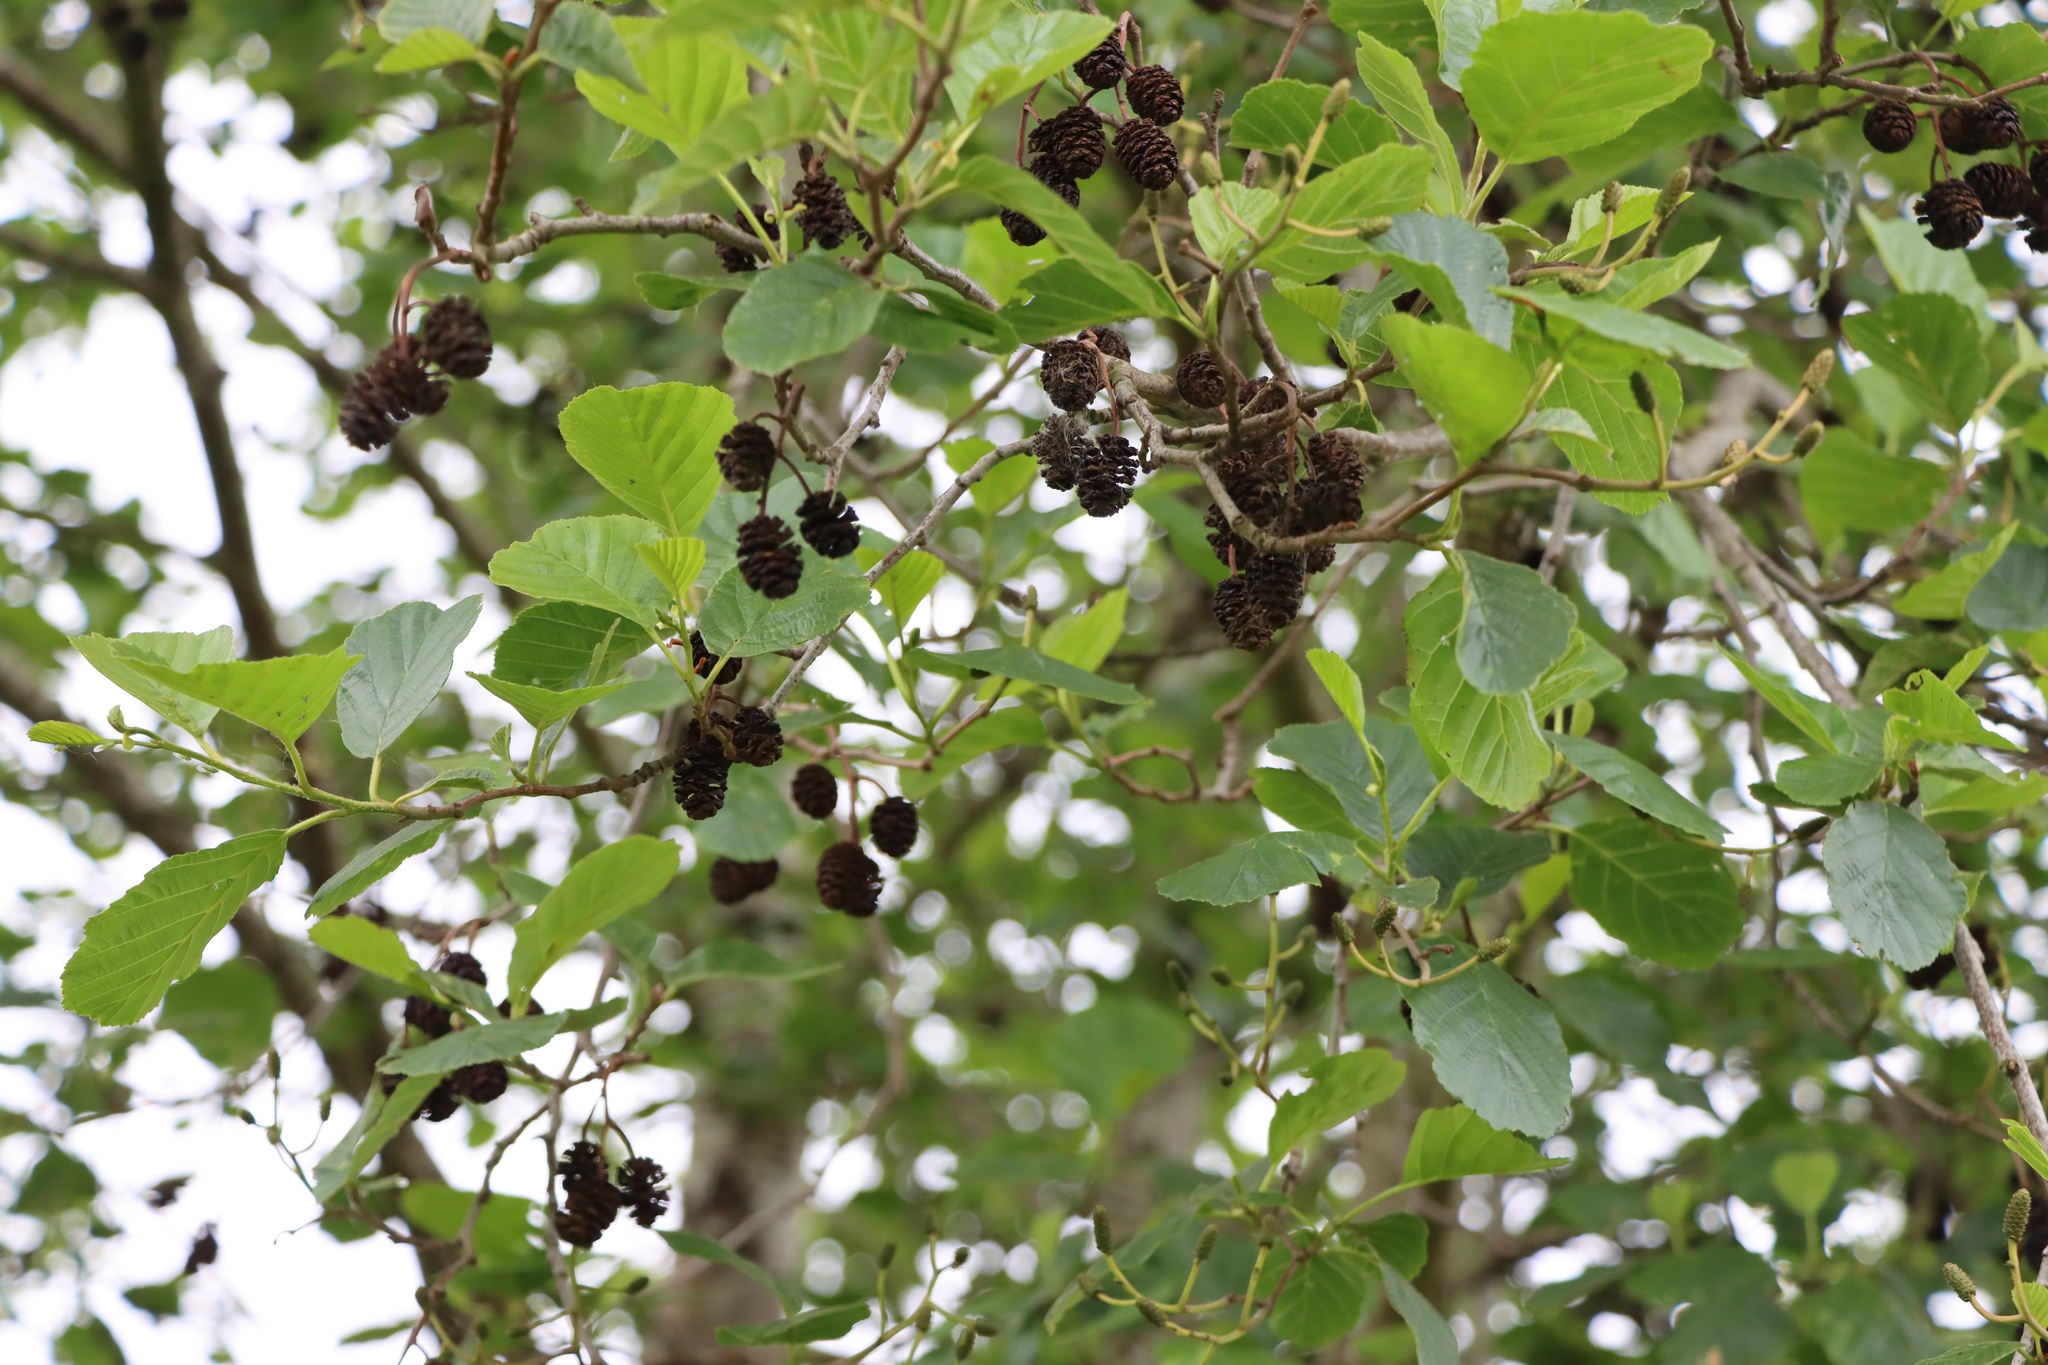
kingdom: Plantae
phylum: Tracheophyta
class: Magnoliopsida
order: Fagales
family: Betulaceae
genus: Alnus
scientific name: Alnus glutinosa
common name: Black alder
